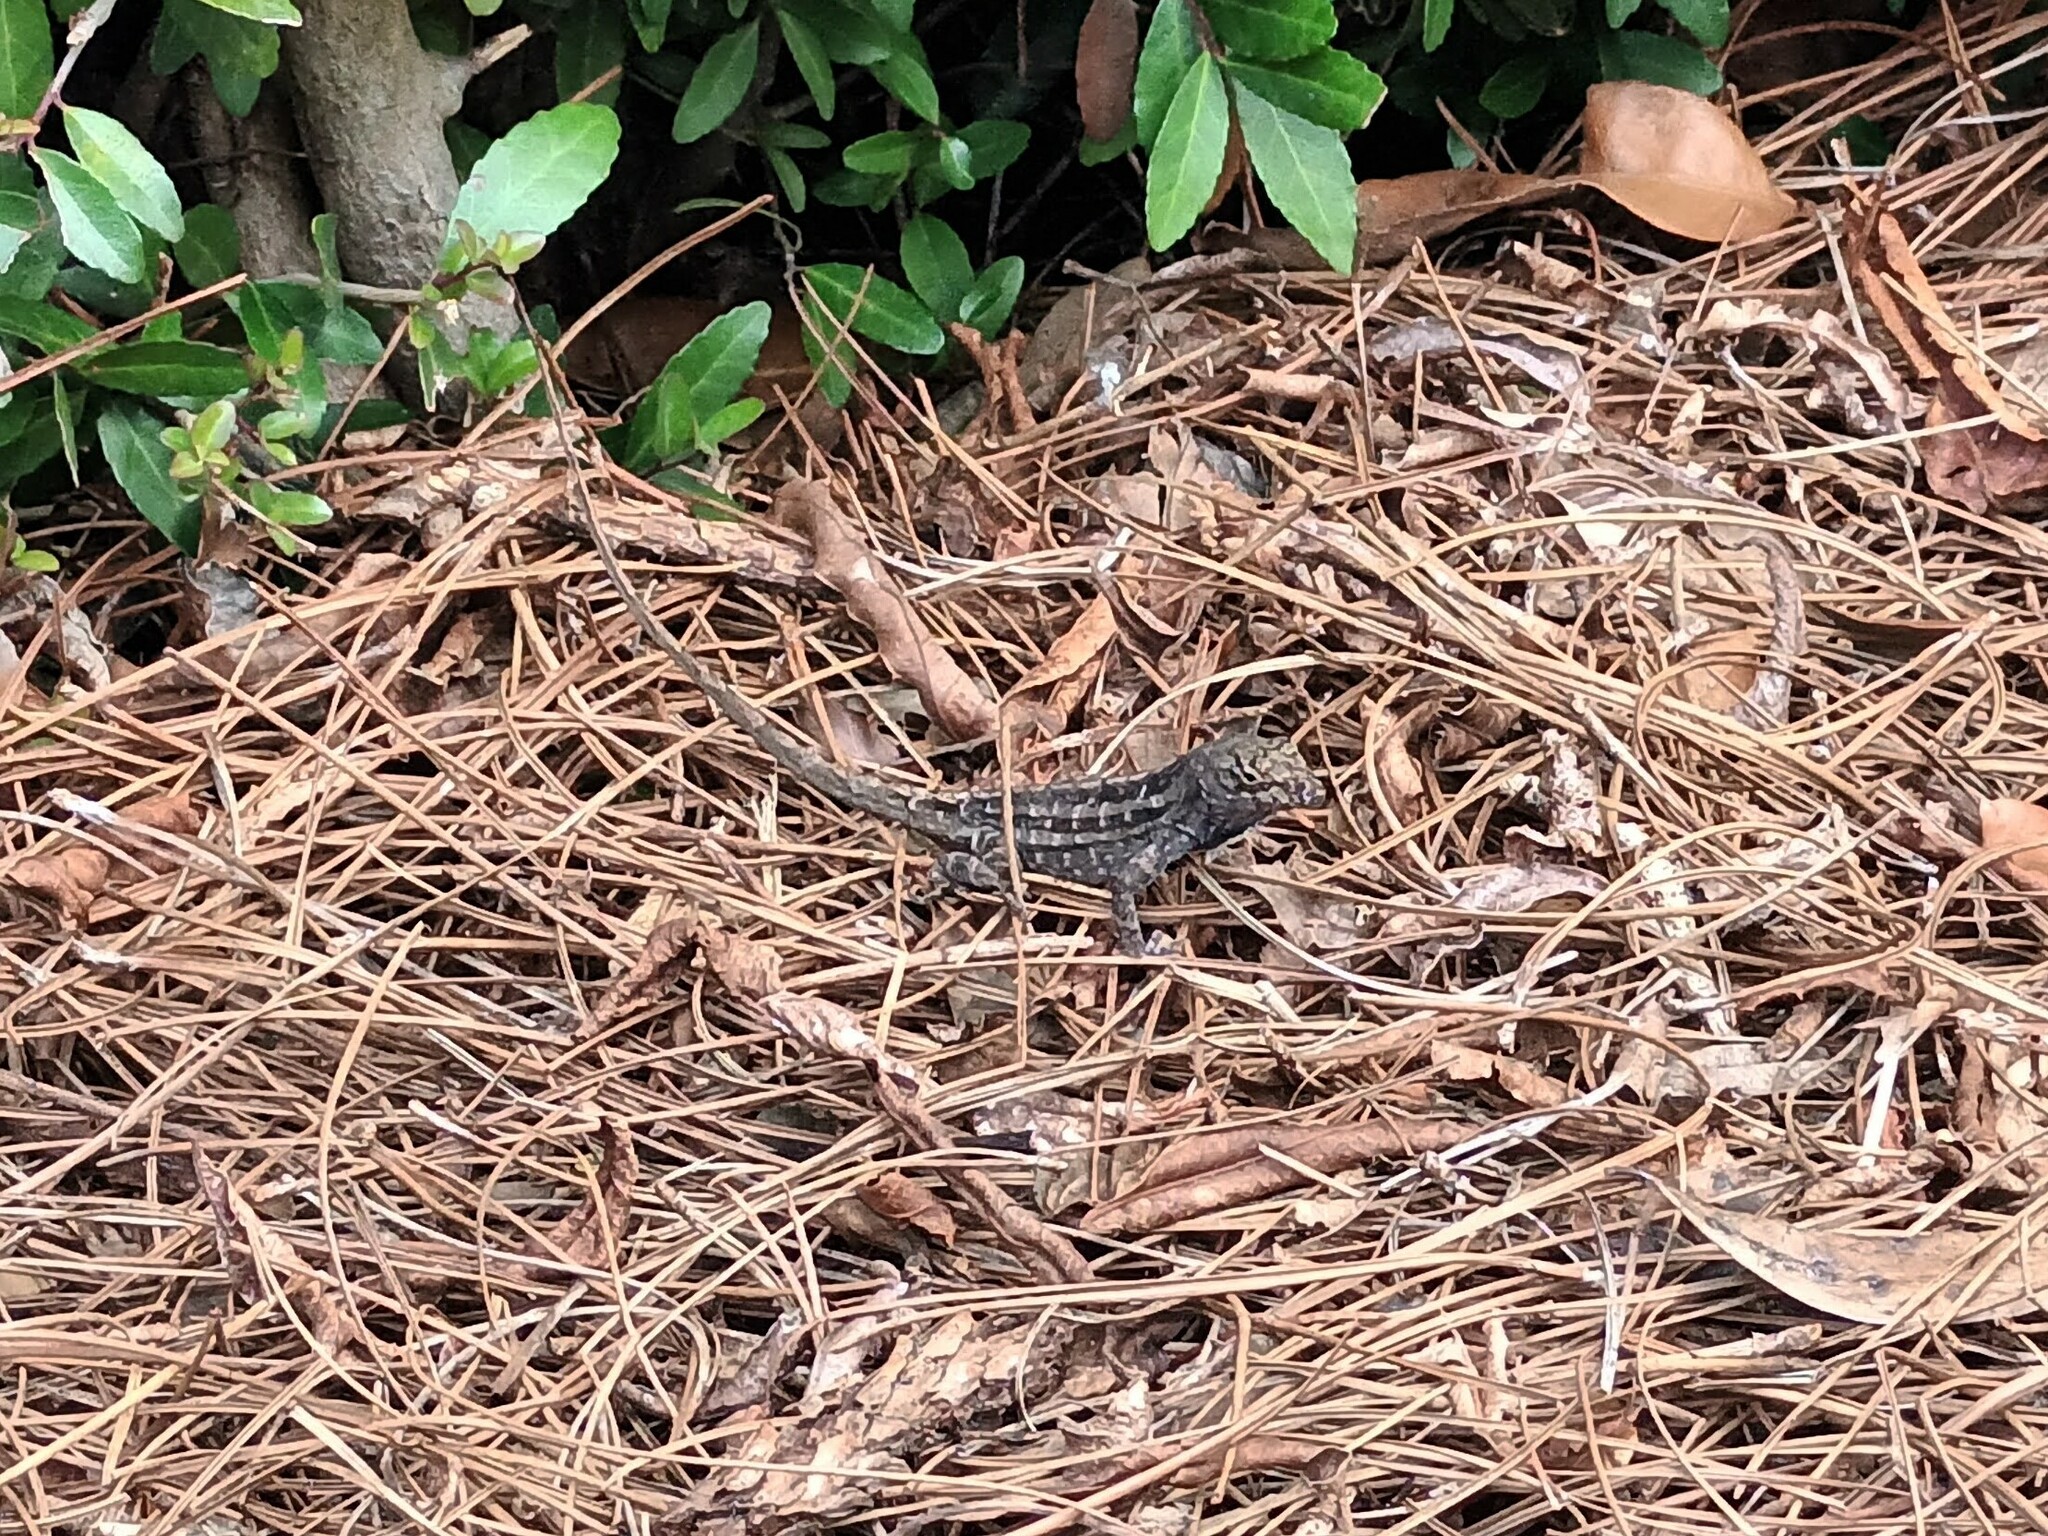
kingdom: Animalia
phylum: Chordata
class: Squamata
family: Dactyloidae
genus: Anolis
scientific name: Anolis sagrei
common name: Brown anole
